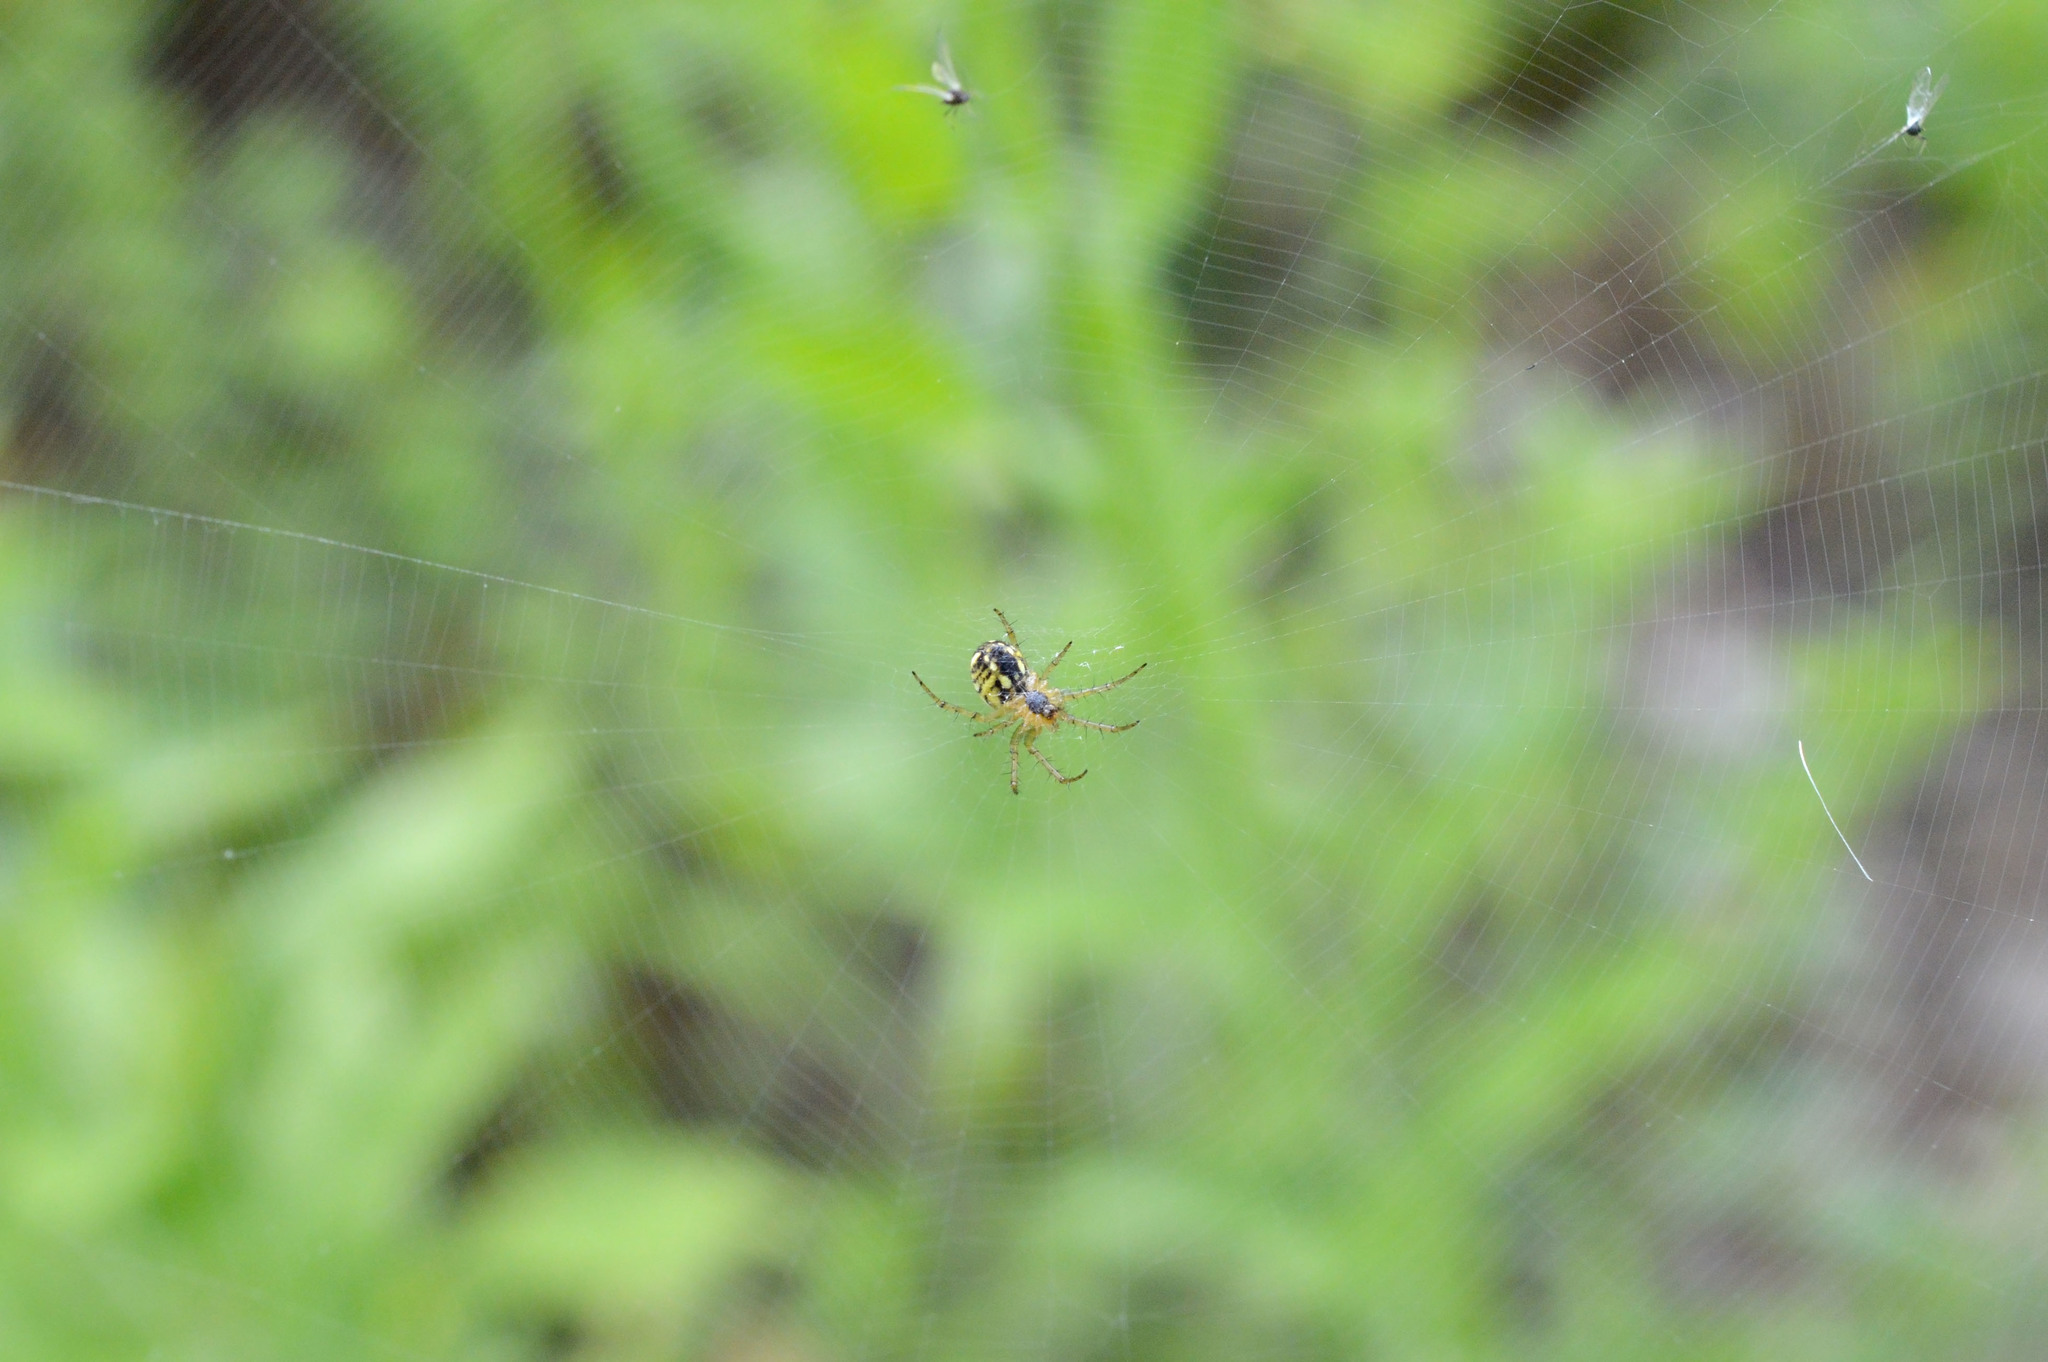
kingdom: Animalia
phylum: Arthropoda
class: Arachnida
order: Araneae
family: Araneidae
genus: Mangora
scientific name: Mangora acalypha
